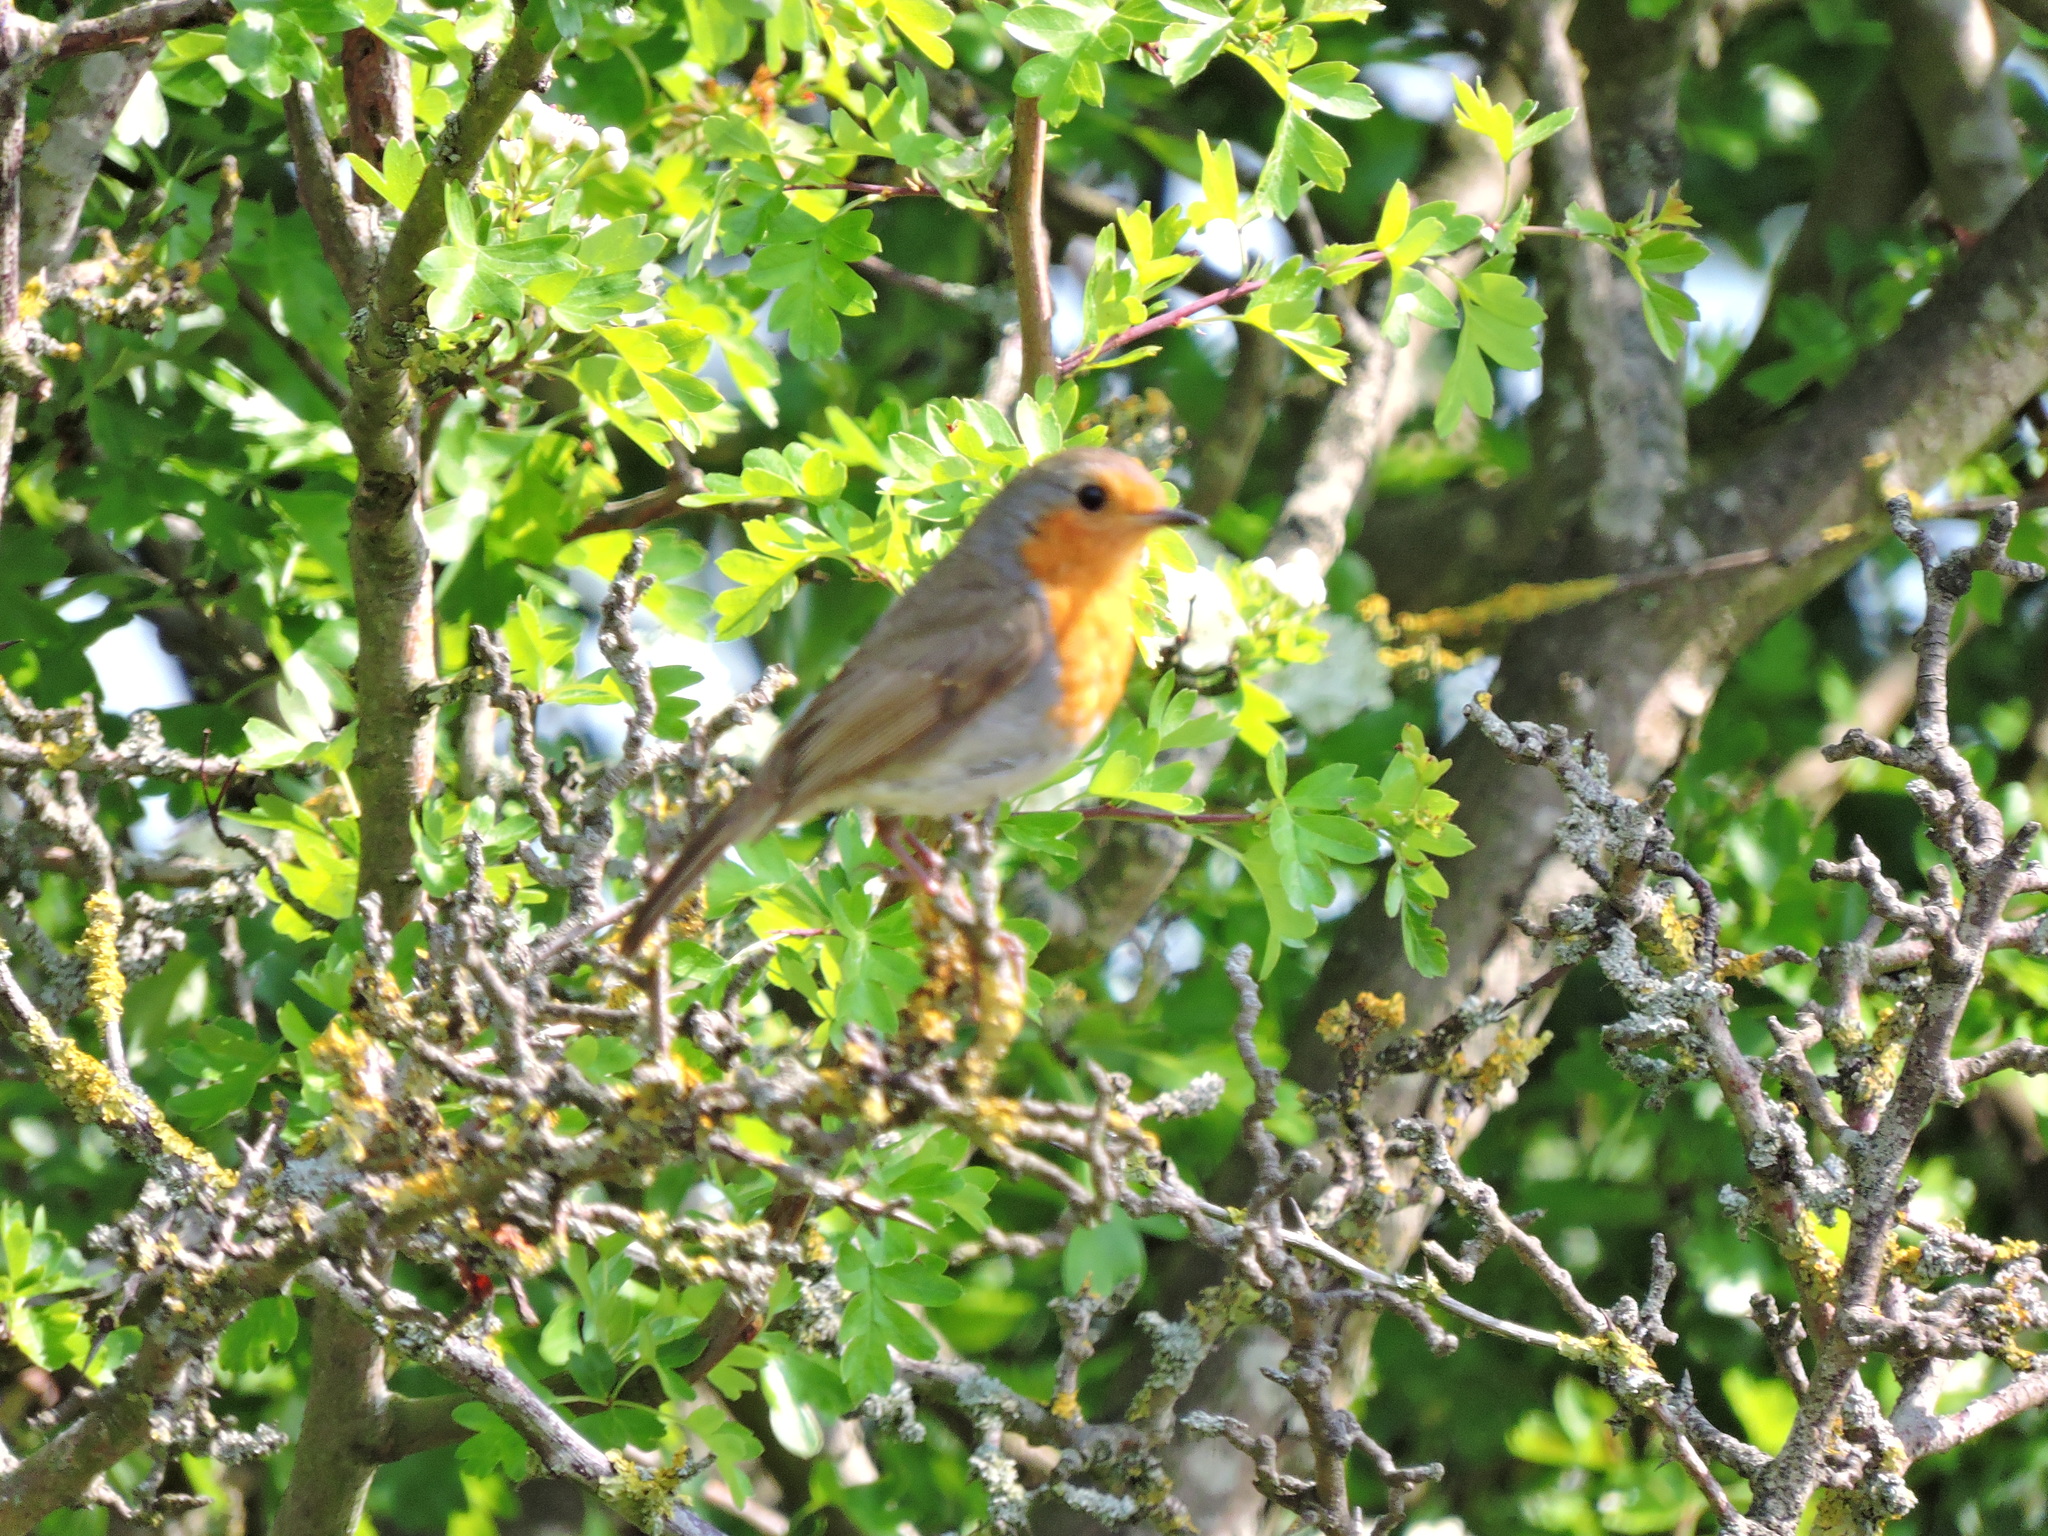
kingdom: Animalia
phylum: Chordata
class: Aves
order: Passeriformes
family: Muscicapidae
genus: Erithacus
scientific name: Erithacus rubecula
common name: European robin
